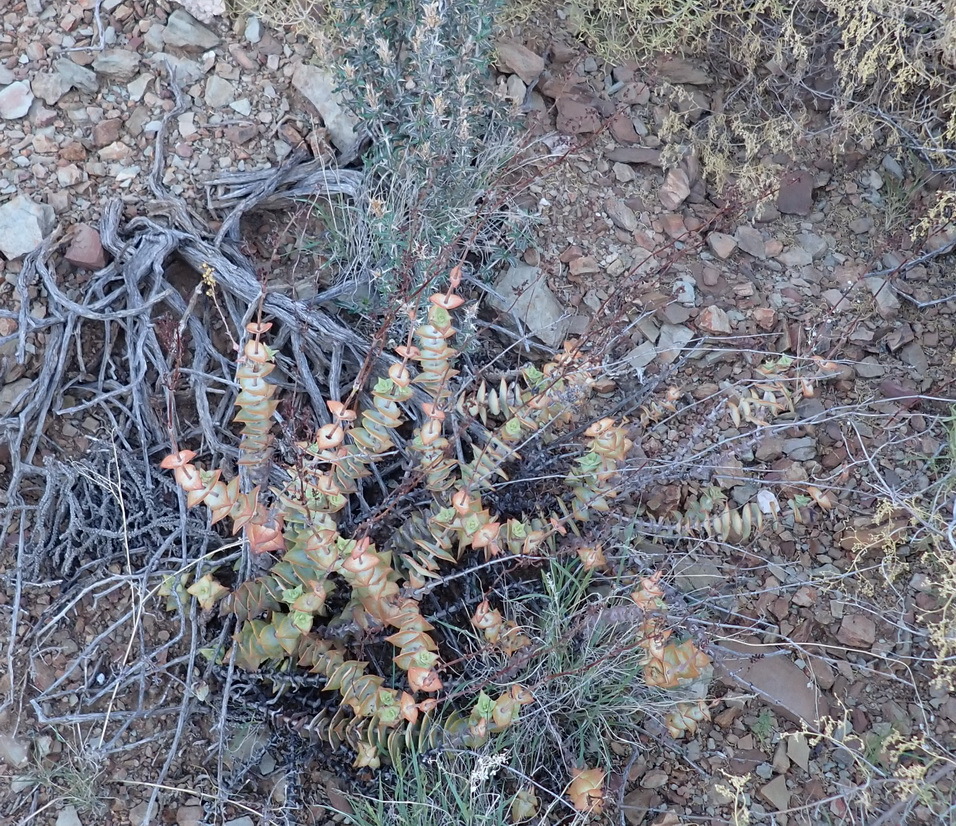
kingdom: Plantae
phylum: Tracheophyta
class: Magnoliopsida
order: Saxifragales
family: Crassulaceae
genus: Crassula
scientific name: Crassula perforata
